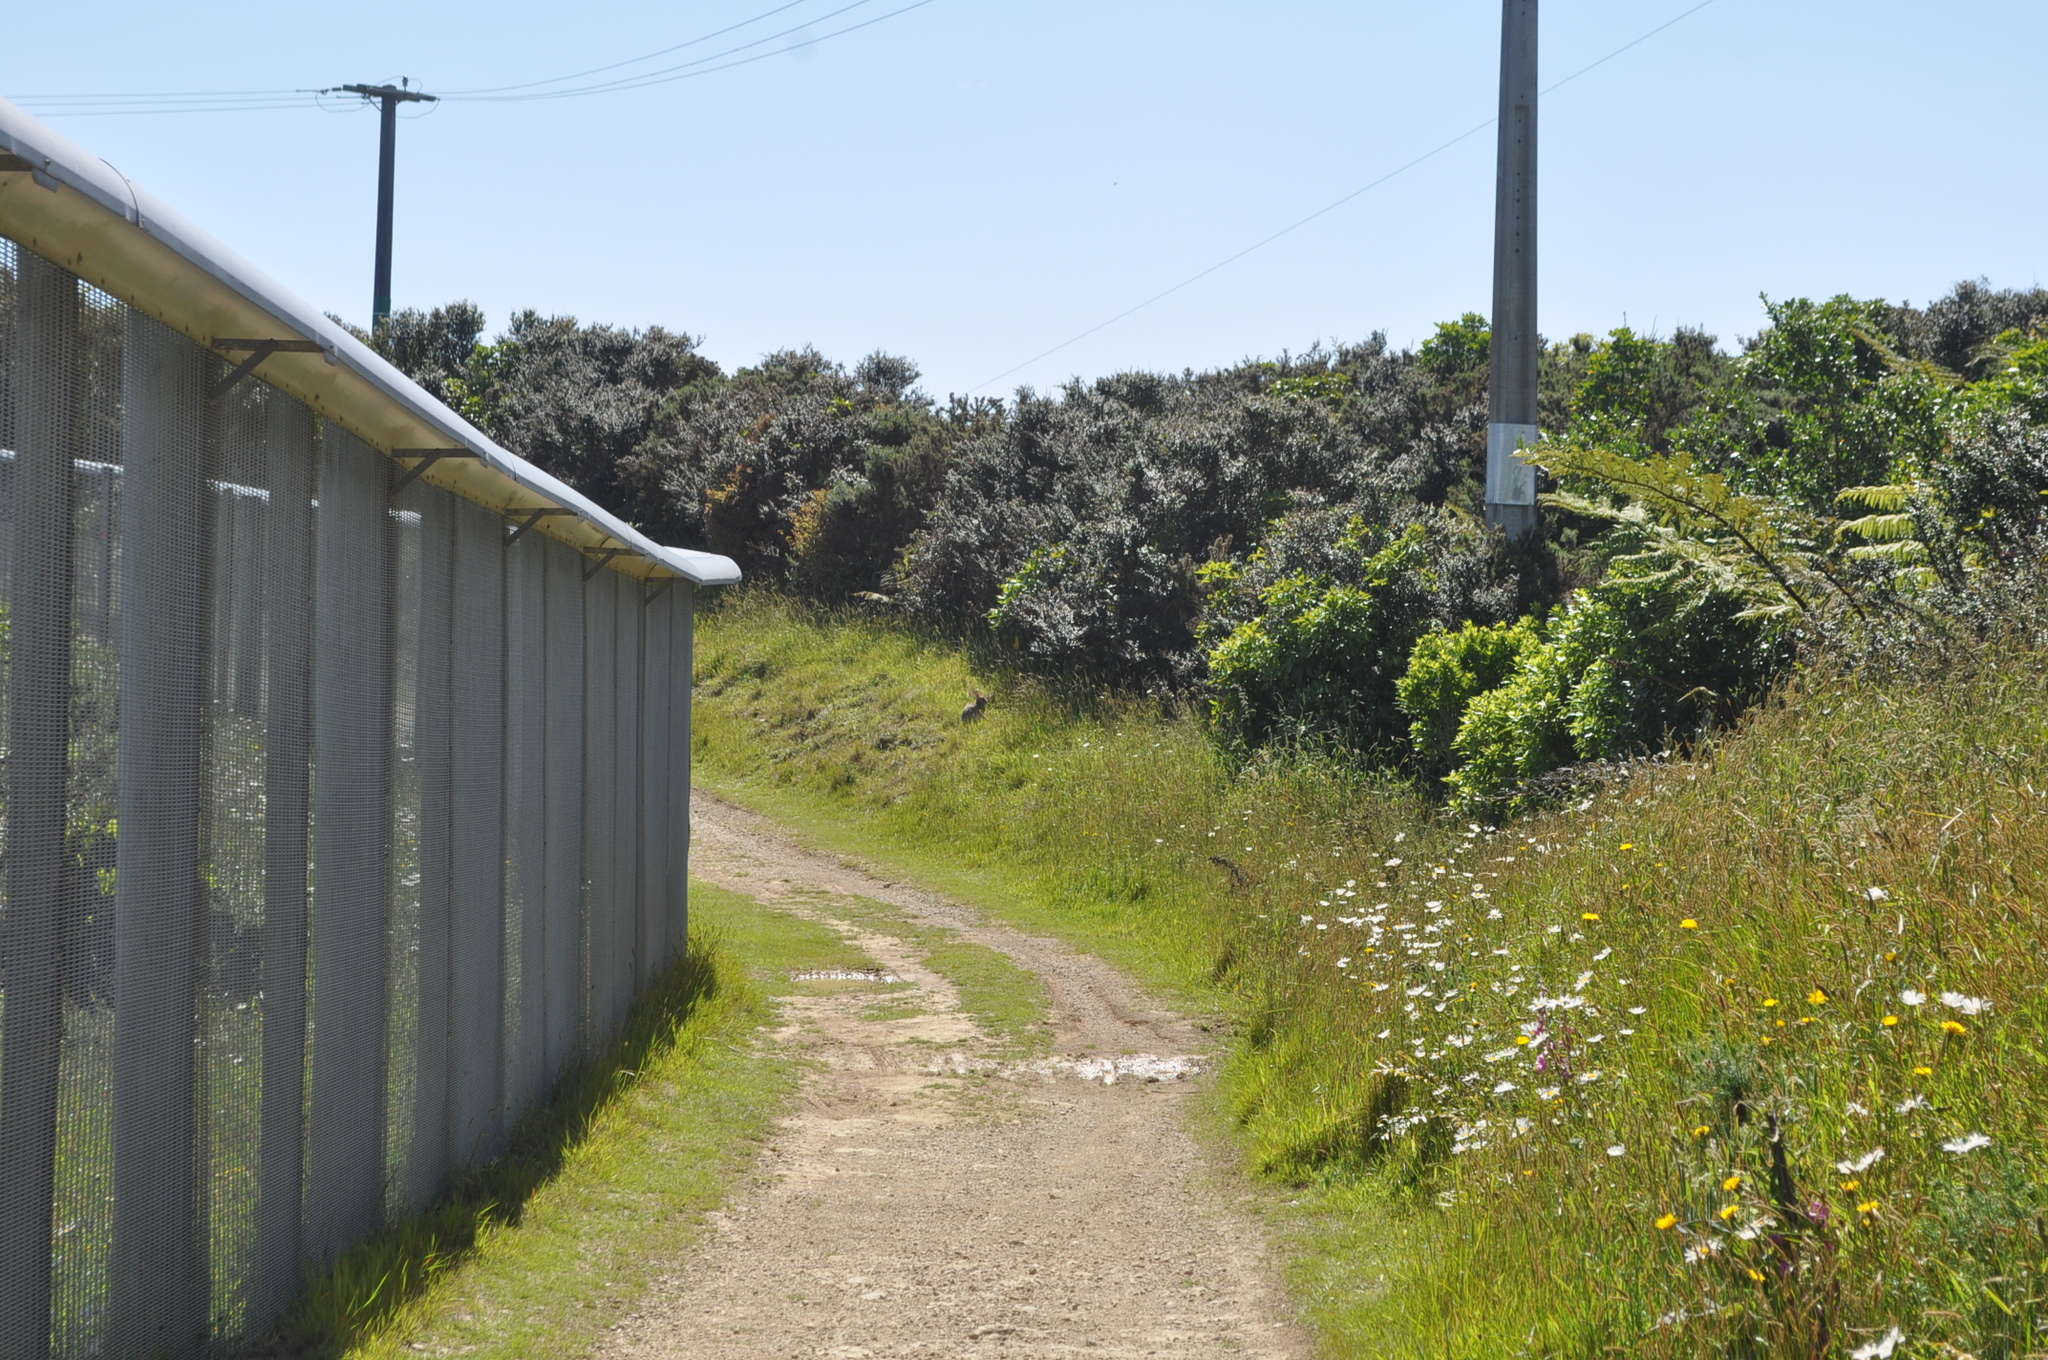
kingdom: Animalia
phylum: Chordata
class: Mammalia
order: Lagomorpha
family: Leporidae
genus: Oryctolagus
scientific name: Oryctolagus cuniculus
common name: European rabbit
